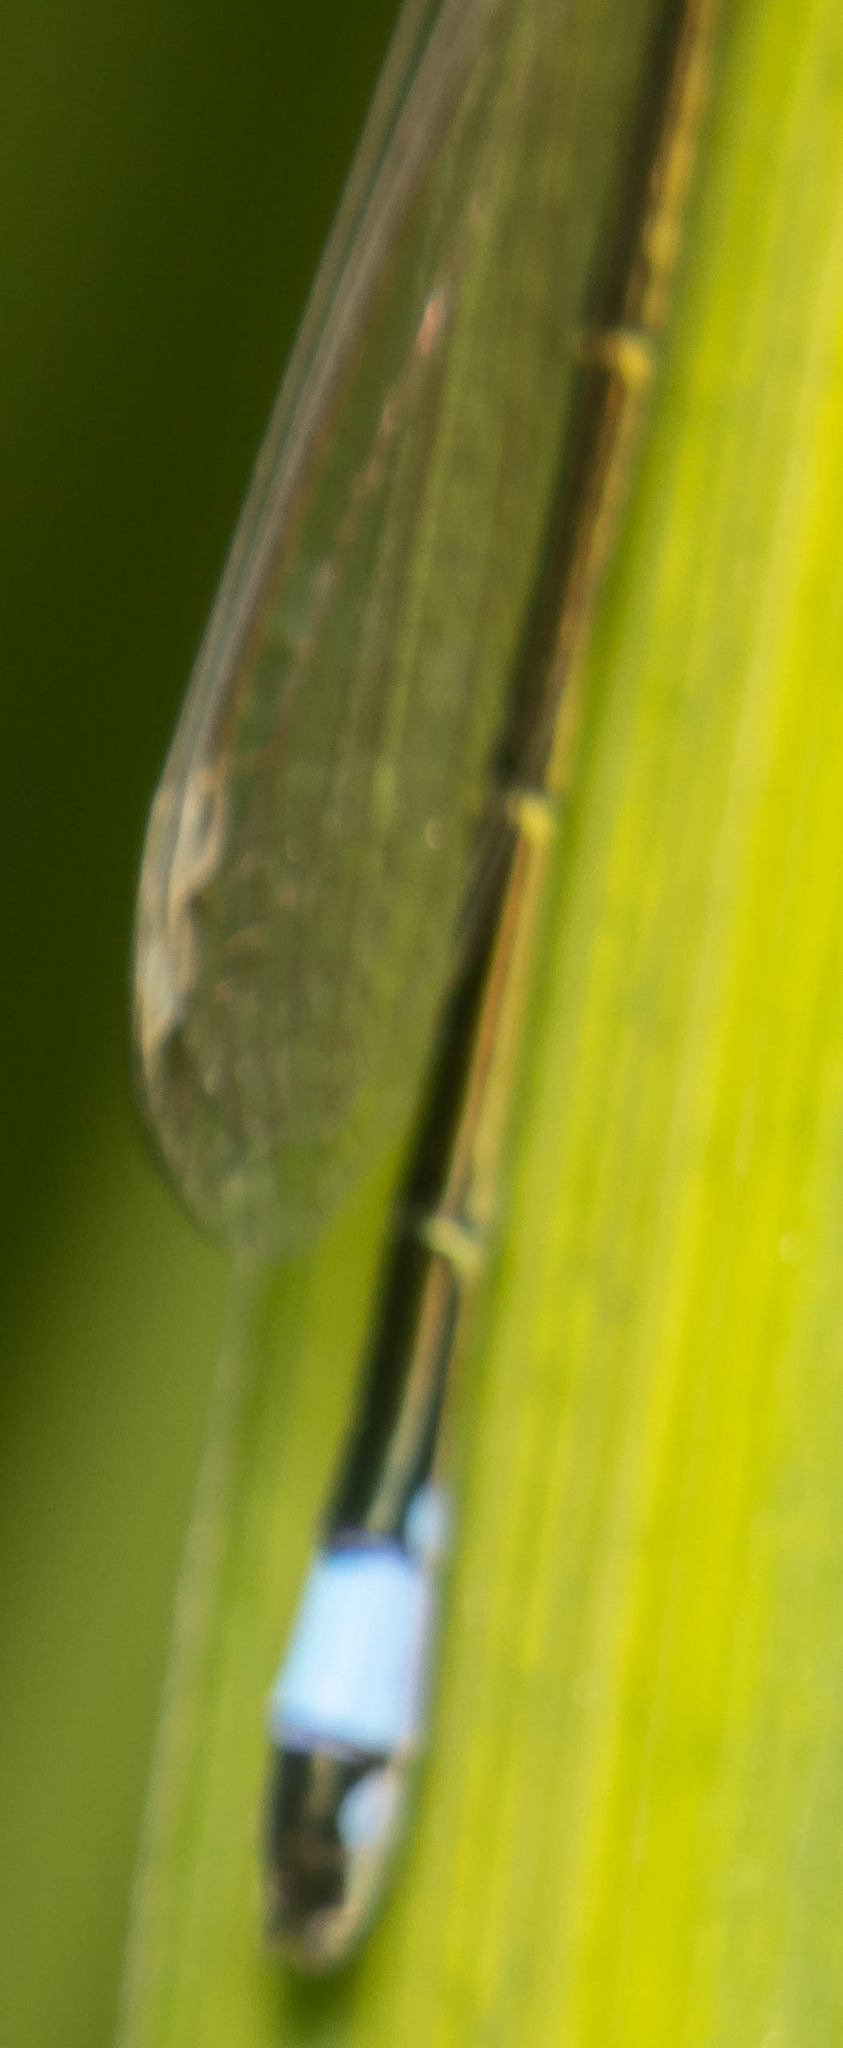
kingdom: Animalia
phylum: Arthropoda
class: Insecta
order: Odonata
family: Coenagrionidae
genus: Ischnura
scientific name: Ischnura elegans
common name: Blue-tailed damselfly
